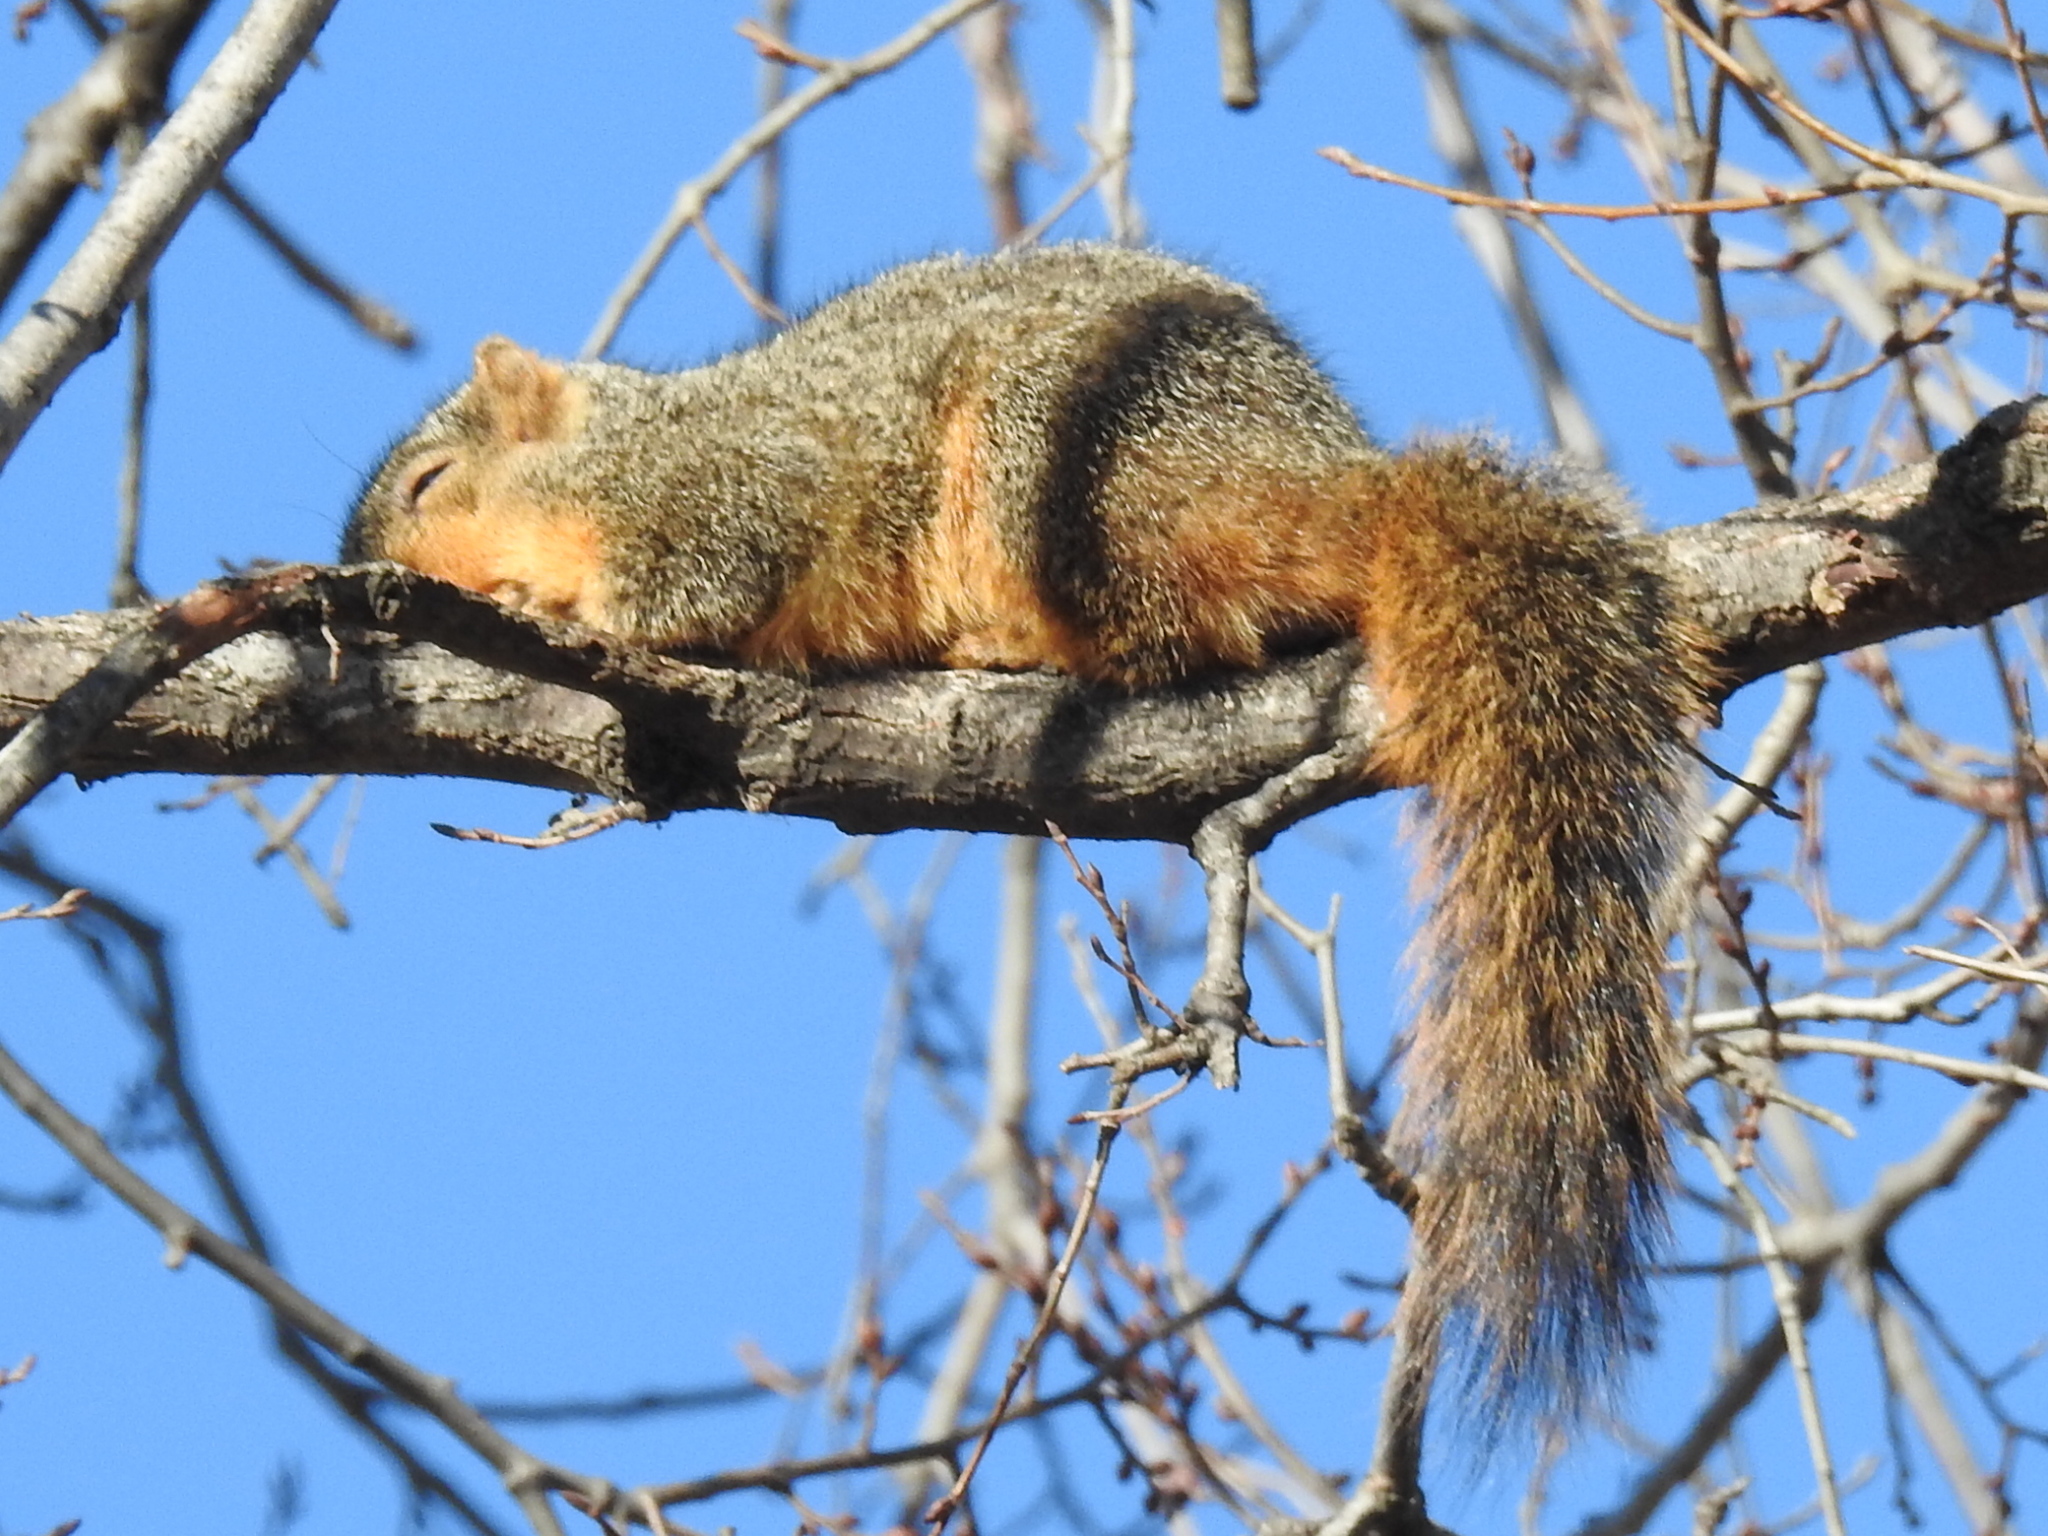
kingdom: Animalia
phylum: Chordata
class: Mammalia
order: Rodentia
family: Sciuridae
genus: Sciurus
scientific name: Sciurus niger
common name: Fox squirrel
